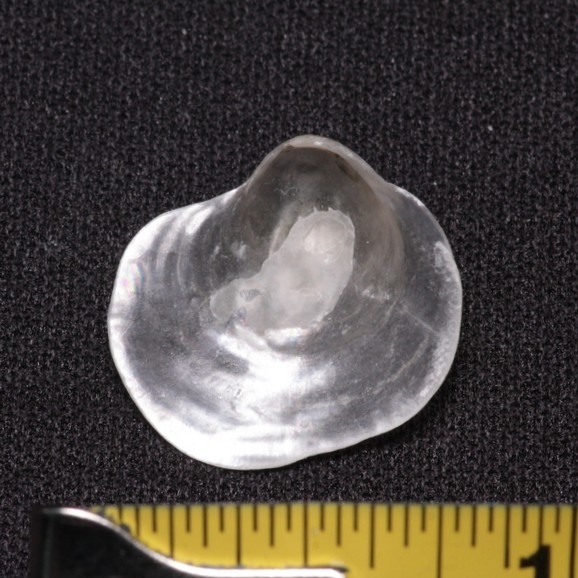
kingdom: Animalia
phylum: Mollusca
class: Bivalvia
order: Pectinida
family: Anomiidae
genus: Anomia
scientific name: Anomia simplex
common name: Common jingle shell
